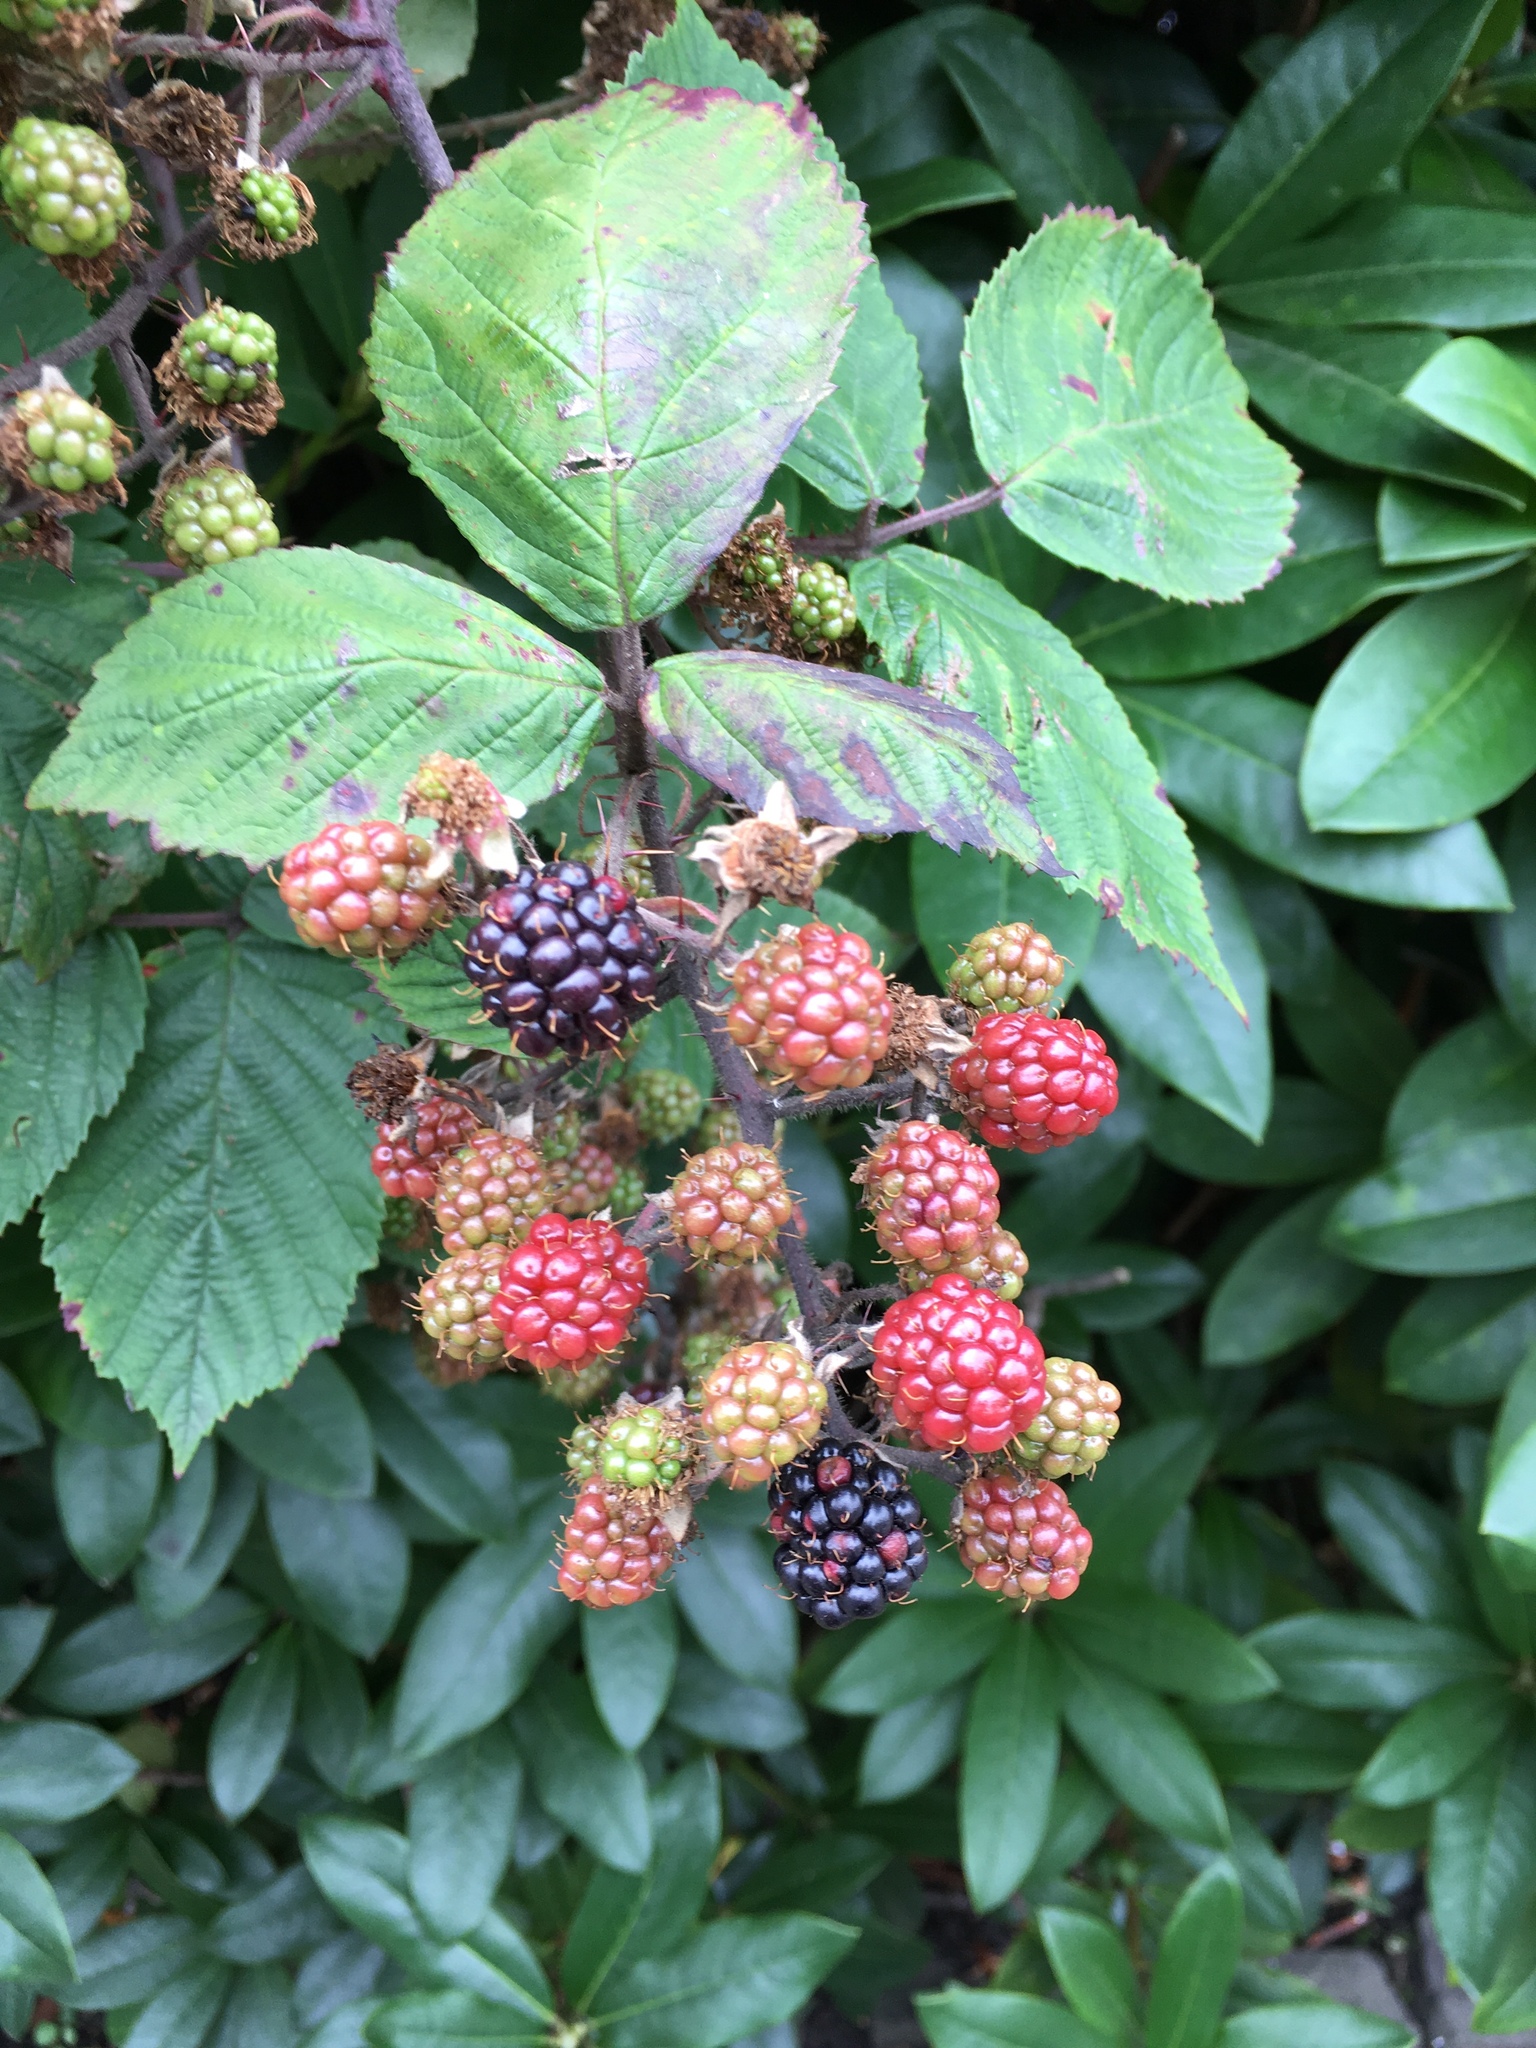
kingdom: Plantae
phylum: Tracheophyta
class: Magnoliopsida
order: Rosales
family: Rosaceae
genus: Rubus
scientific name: Rubus
